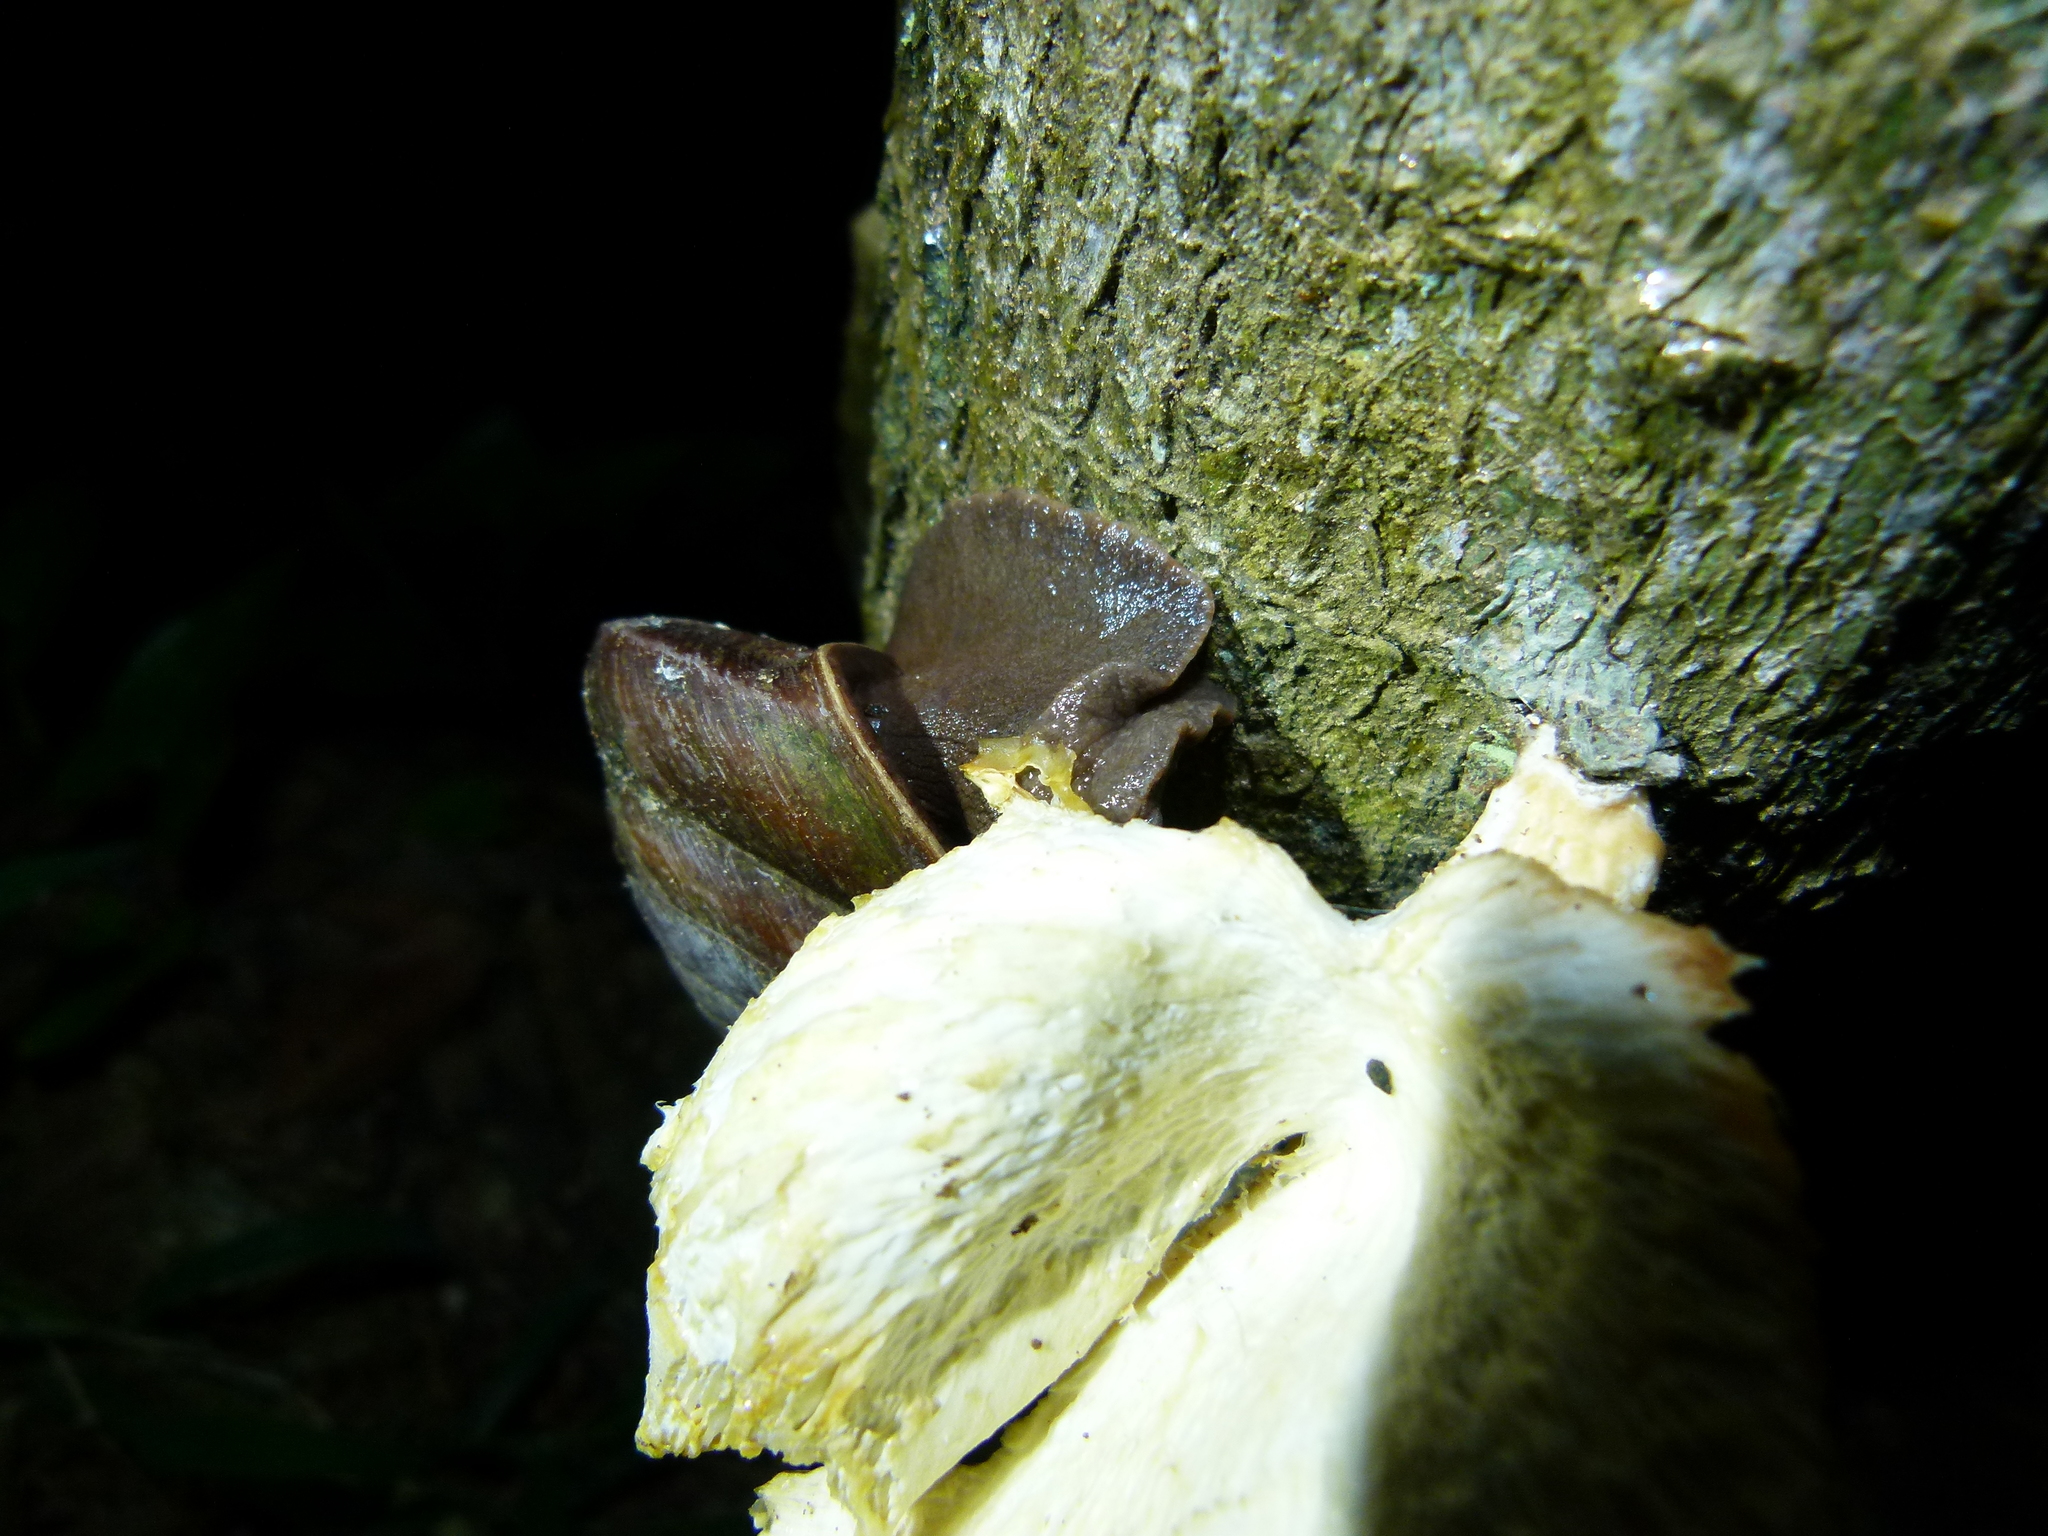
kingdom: Animalia
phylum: Mollusca
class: Gastropoda
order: Stylommatophora
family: Solaropsidae
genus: Caracolus
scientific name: Caracolus carocolla
